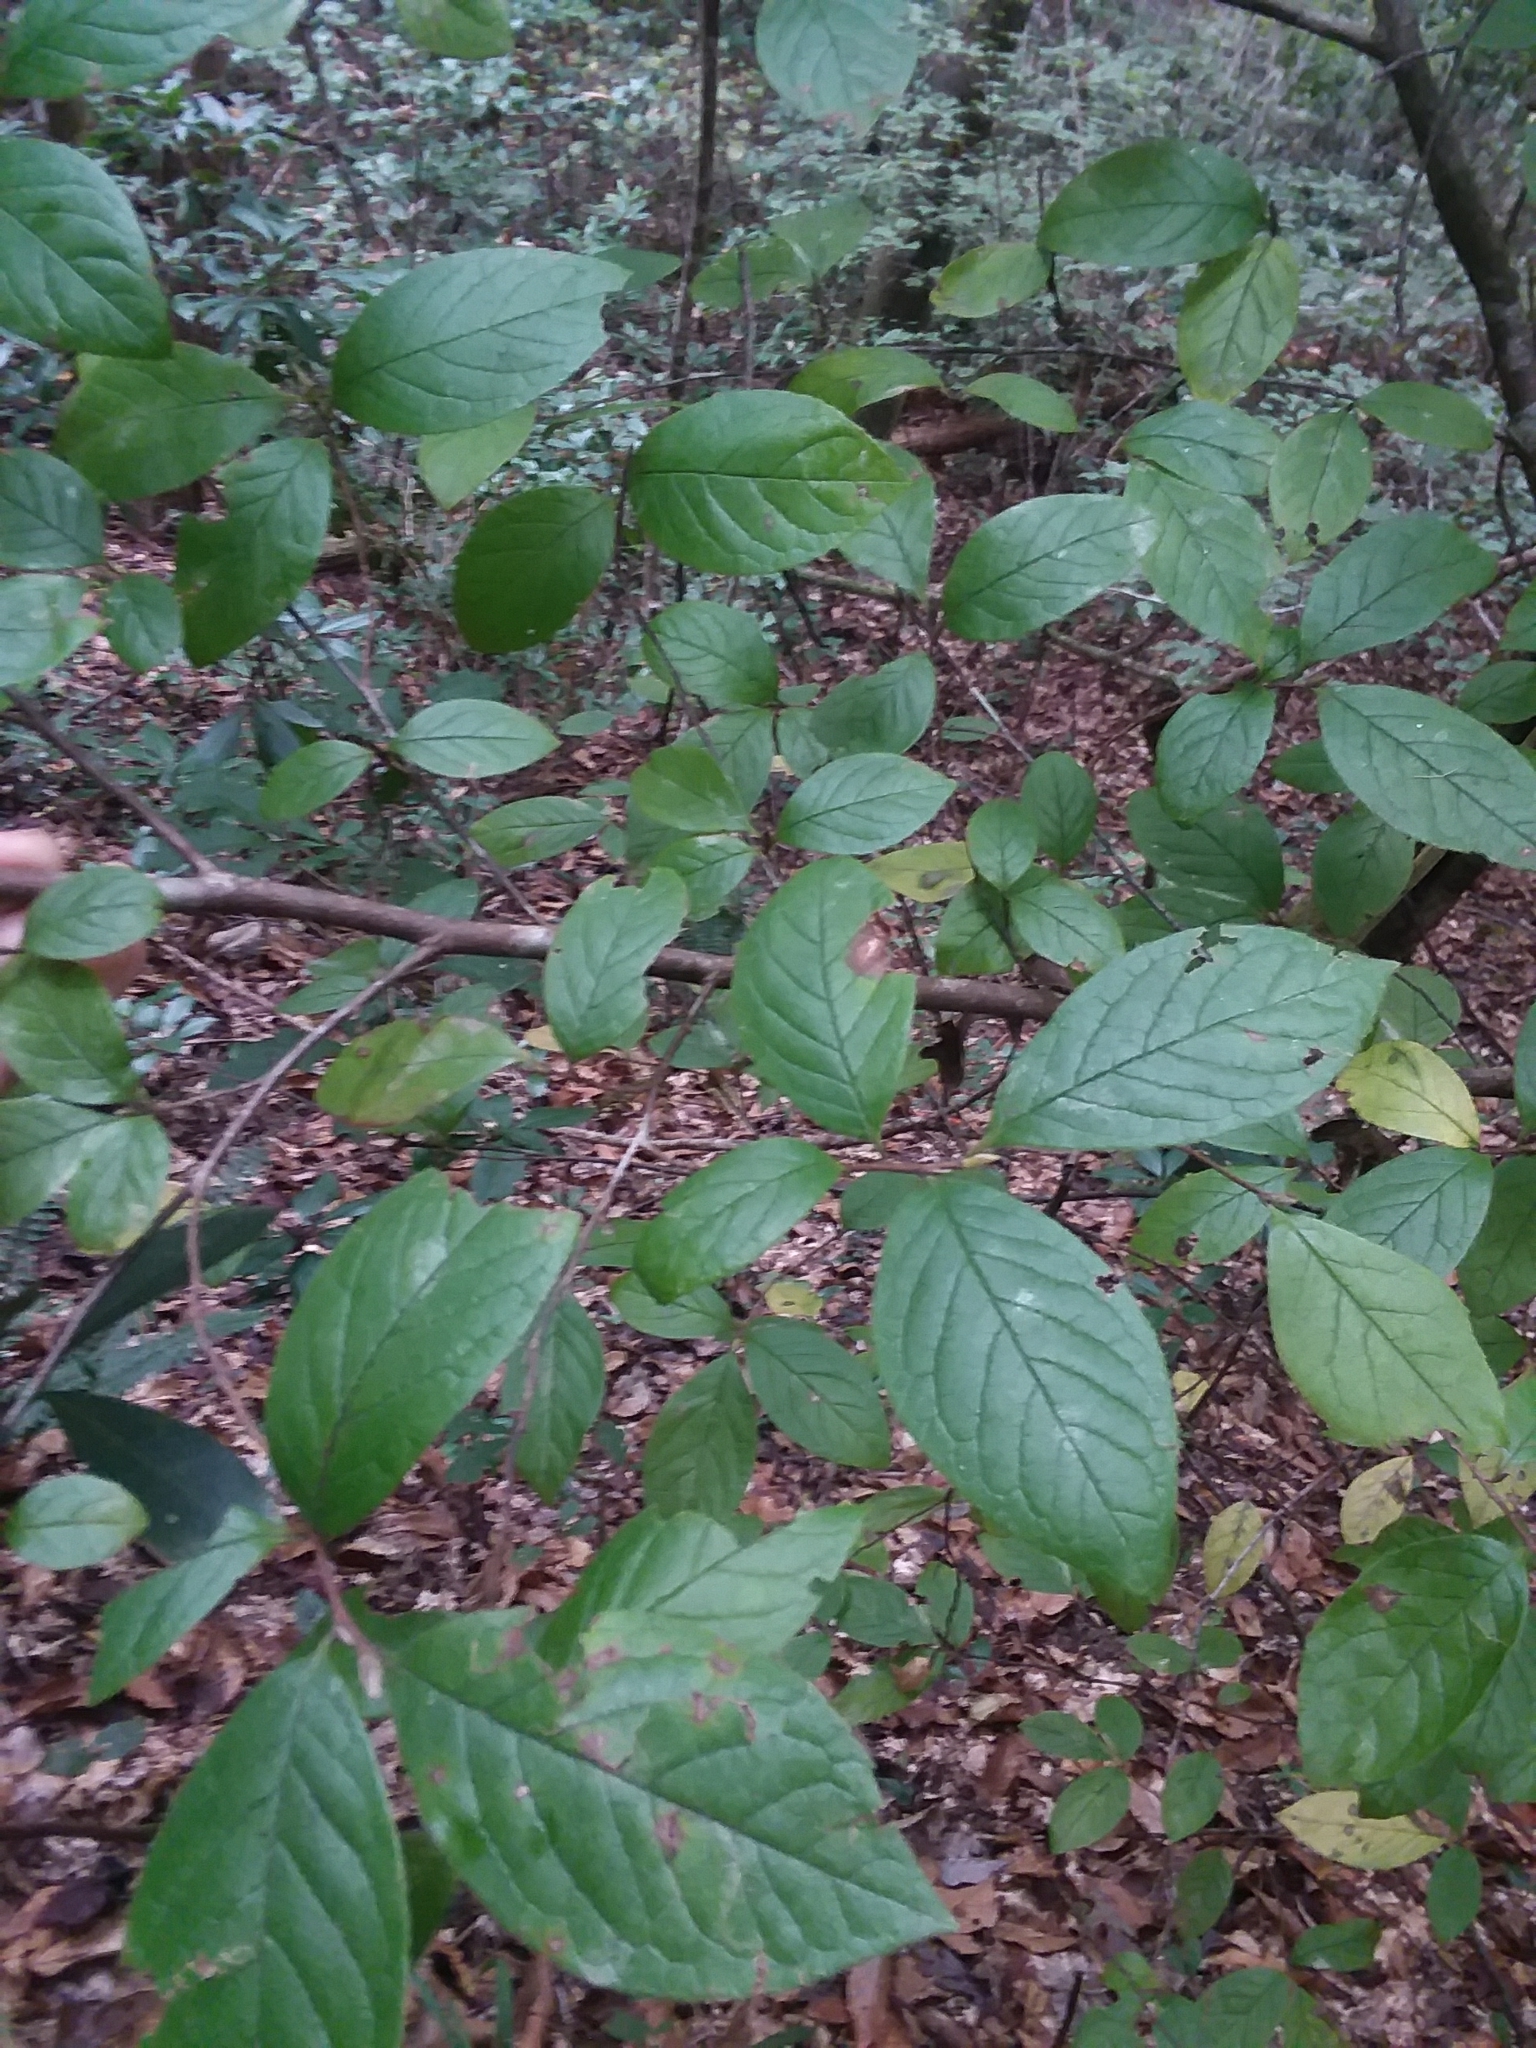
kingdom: Plantae
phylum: Tracheophyta
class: Magnoliopsida
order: Ericales
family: Theaceae
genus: Stewartia
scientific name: Stewartia malacodendron
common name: Virginia stewartia
